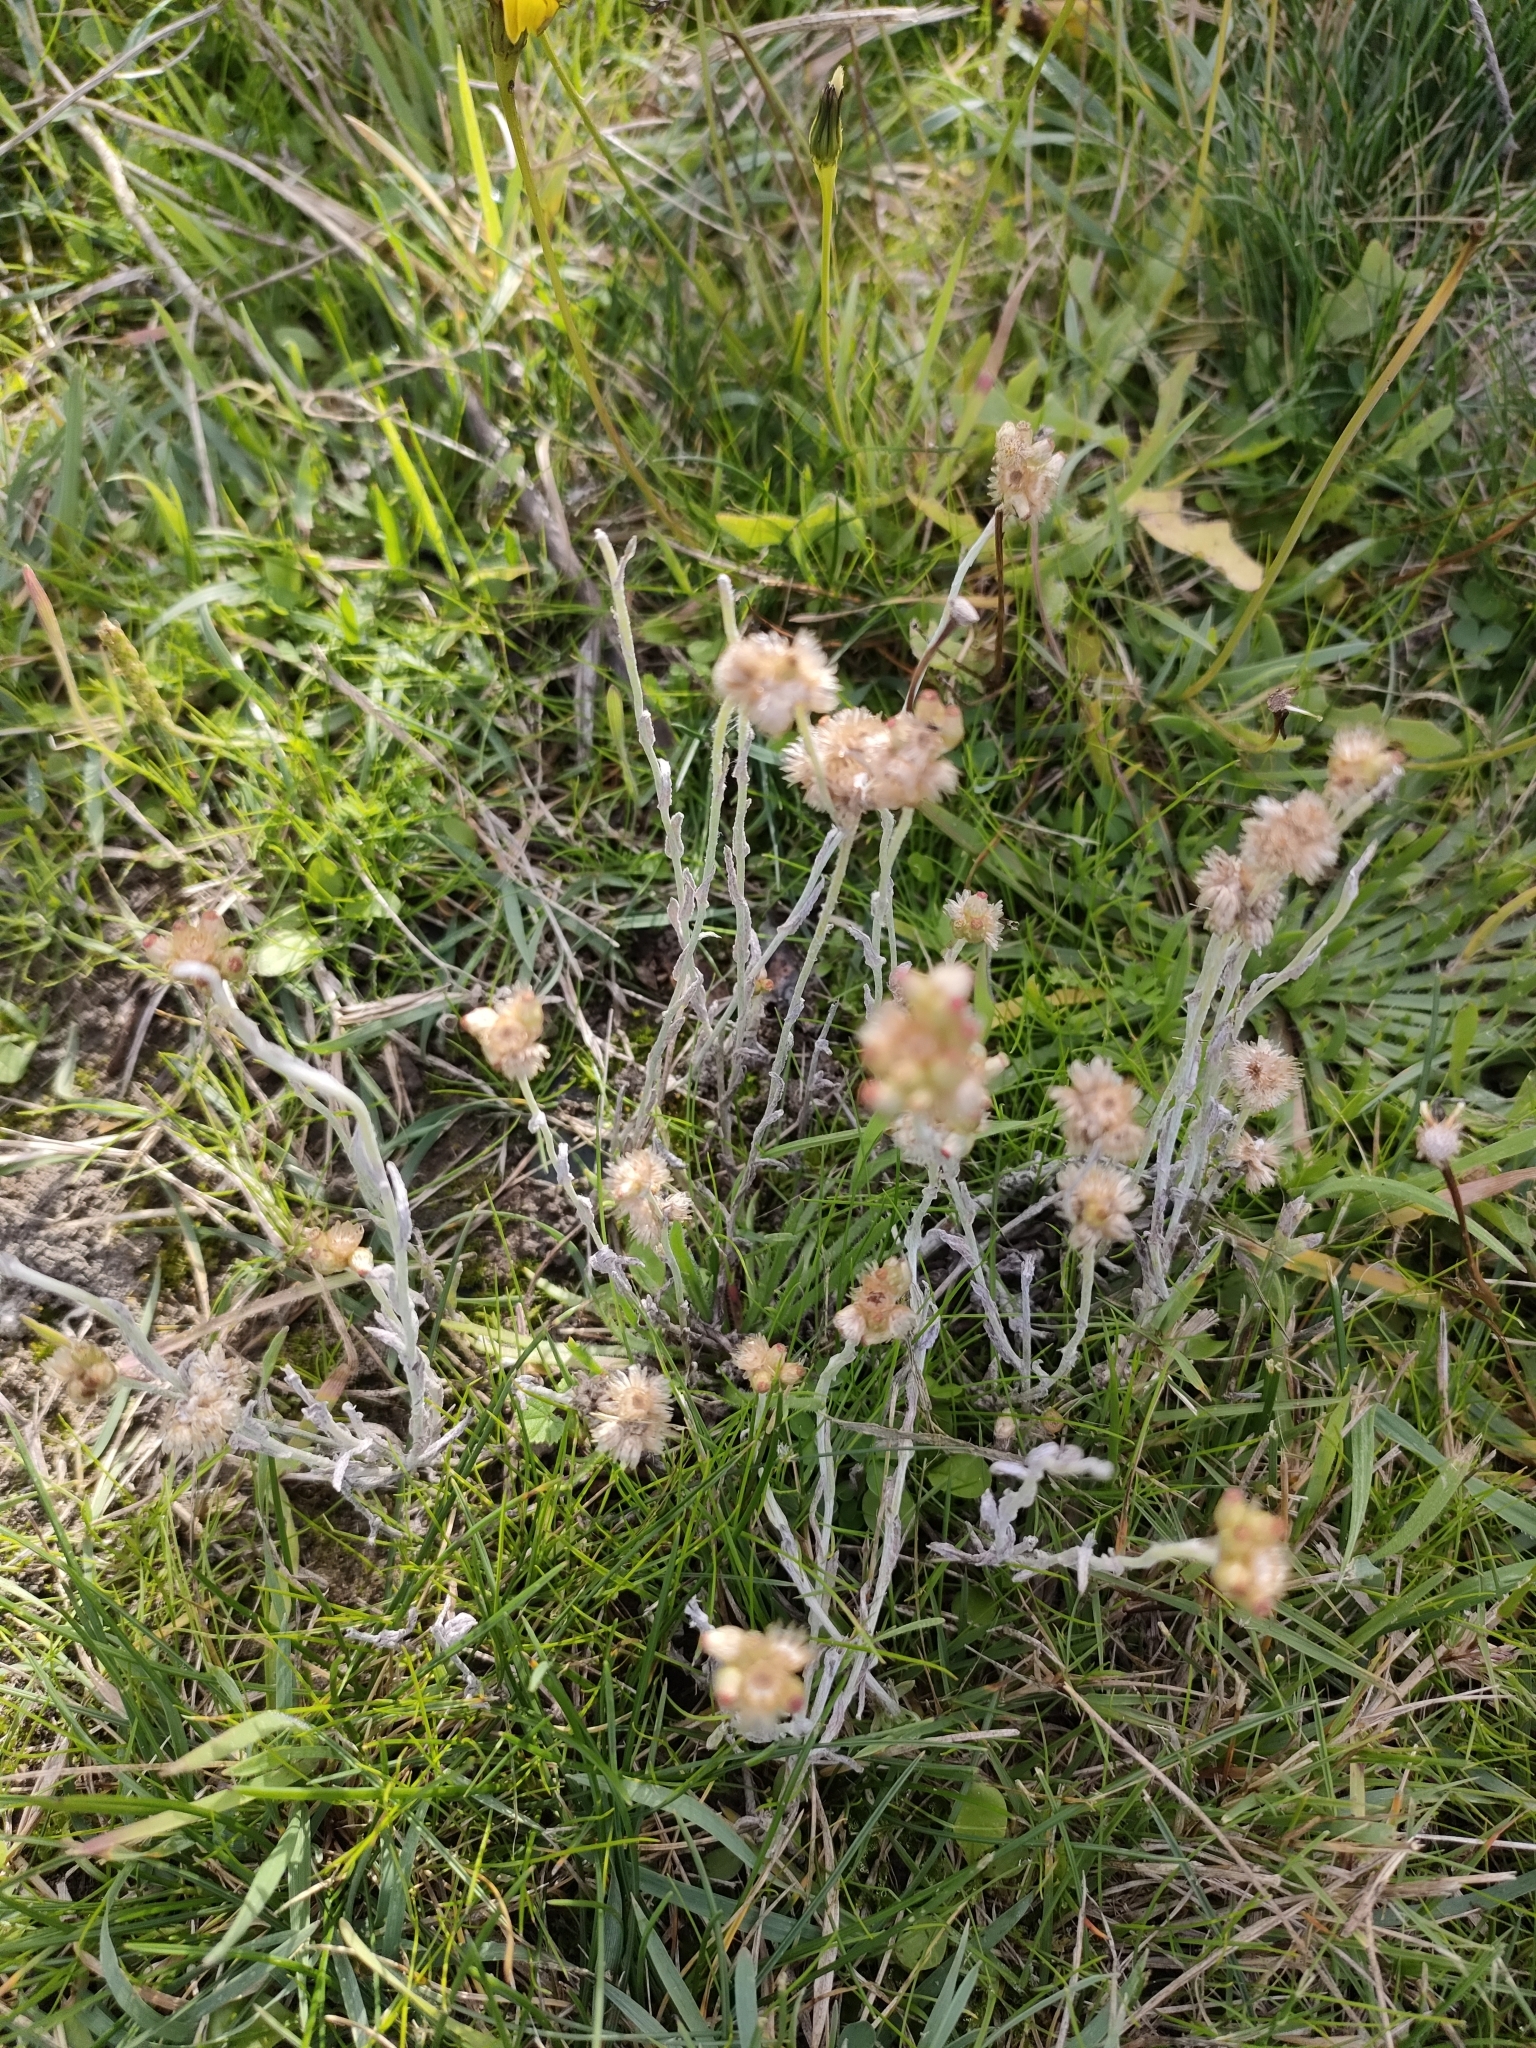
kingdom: Plantae
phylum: Tracheophyta
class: Magnoliopsida
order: Asterales
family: Asteraceae
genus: Helichrysum
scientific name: Helichrysum luteoalbum
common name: Daisy
